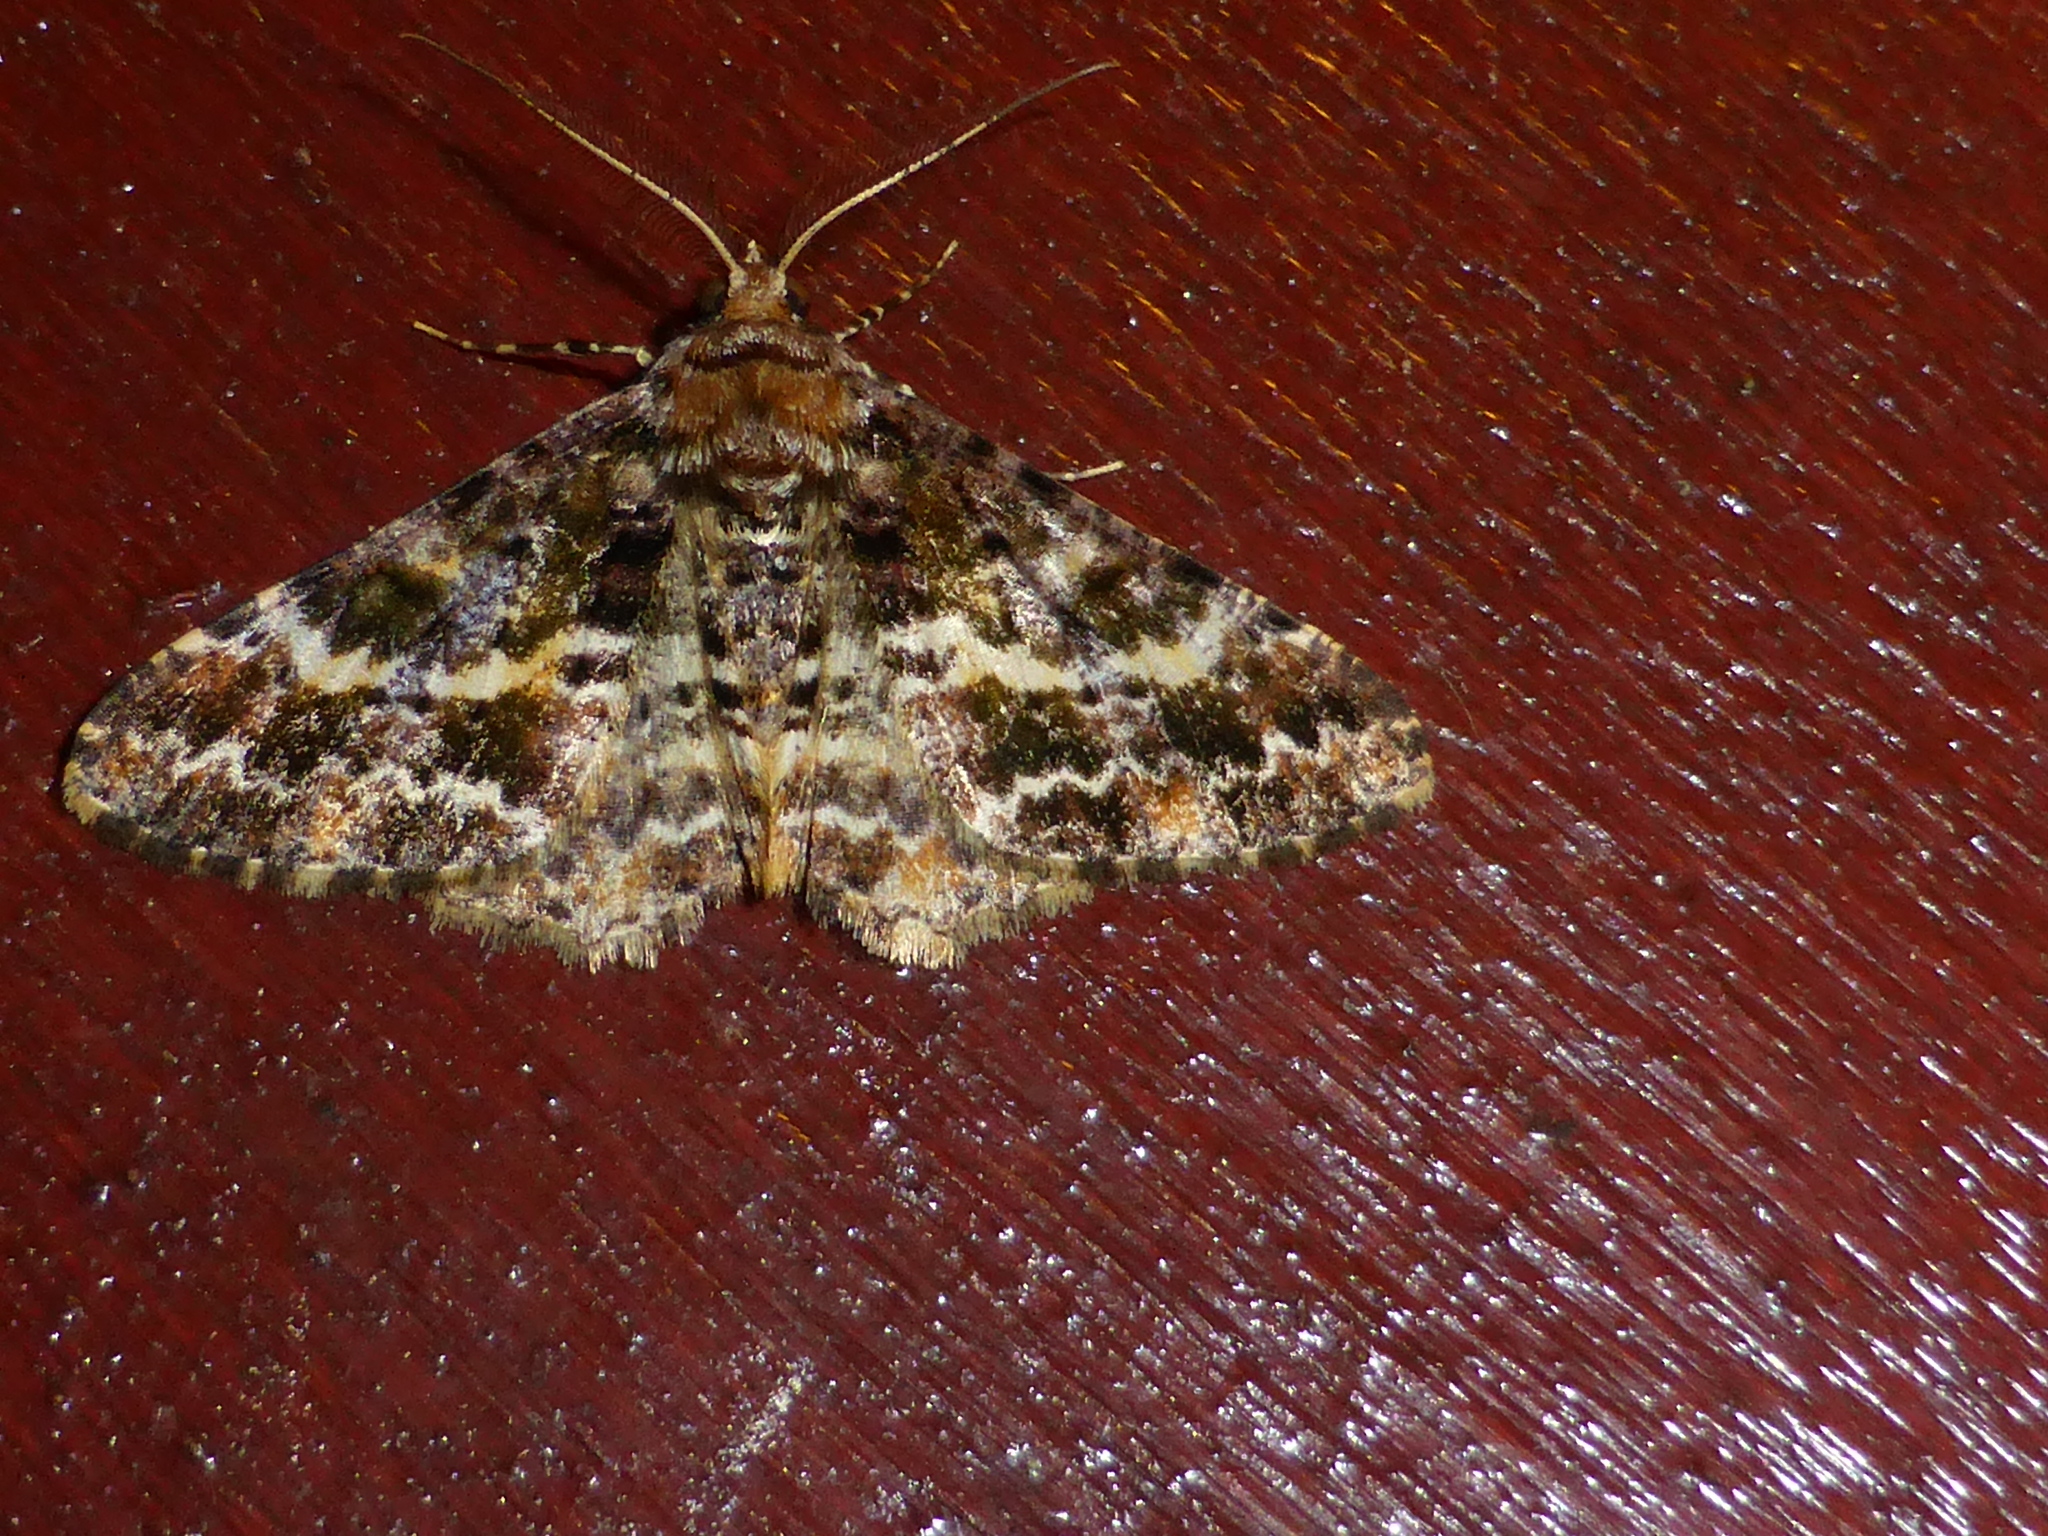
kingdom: Animalia
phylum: Arthropoda
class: Insecta
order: Lepidoptera
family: Geometridae
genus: Alcis
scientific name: Alcis praevariegata
